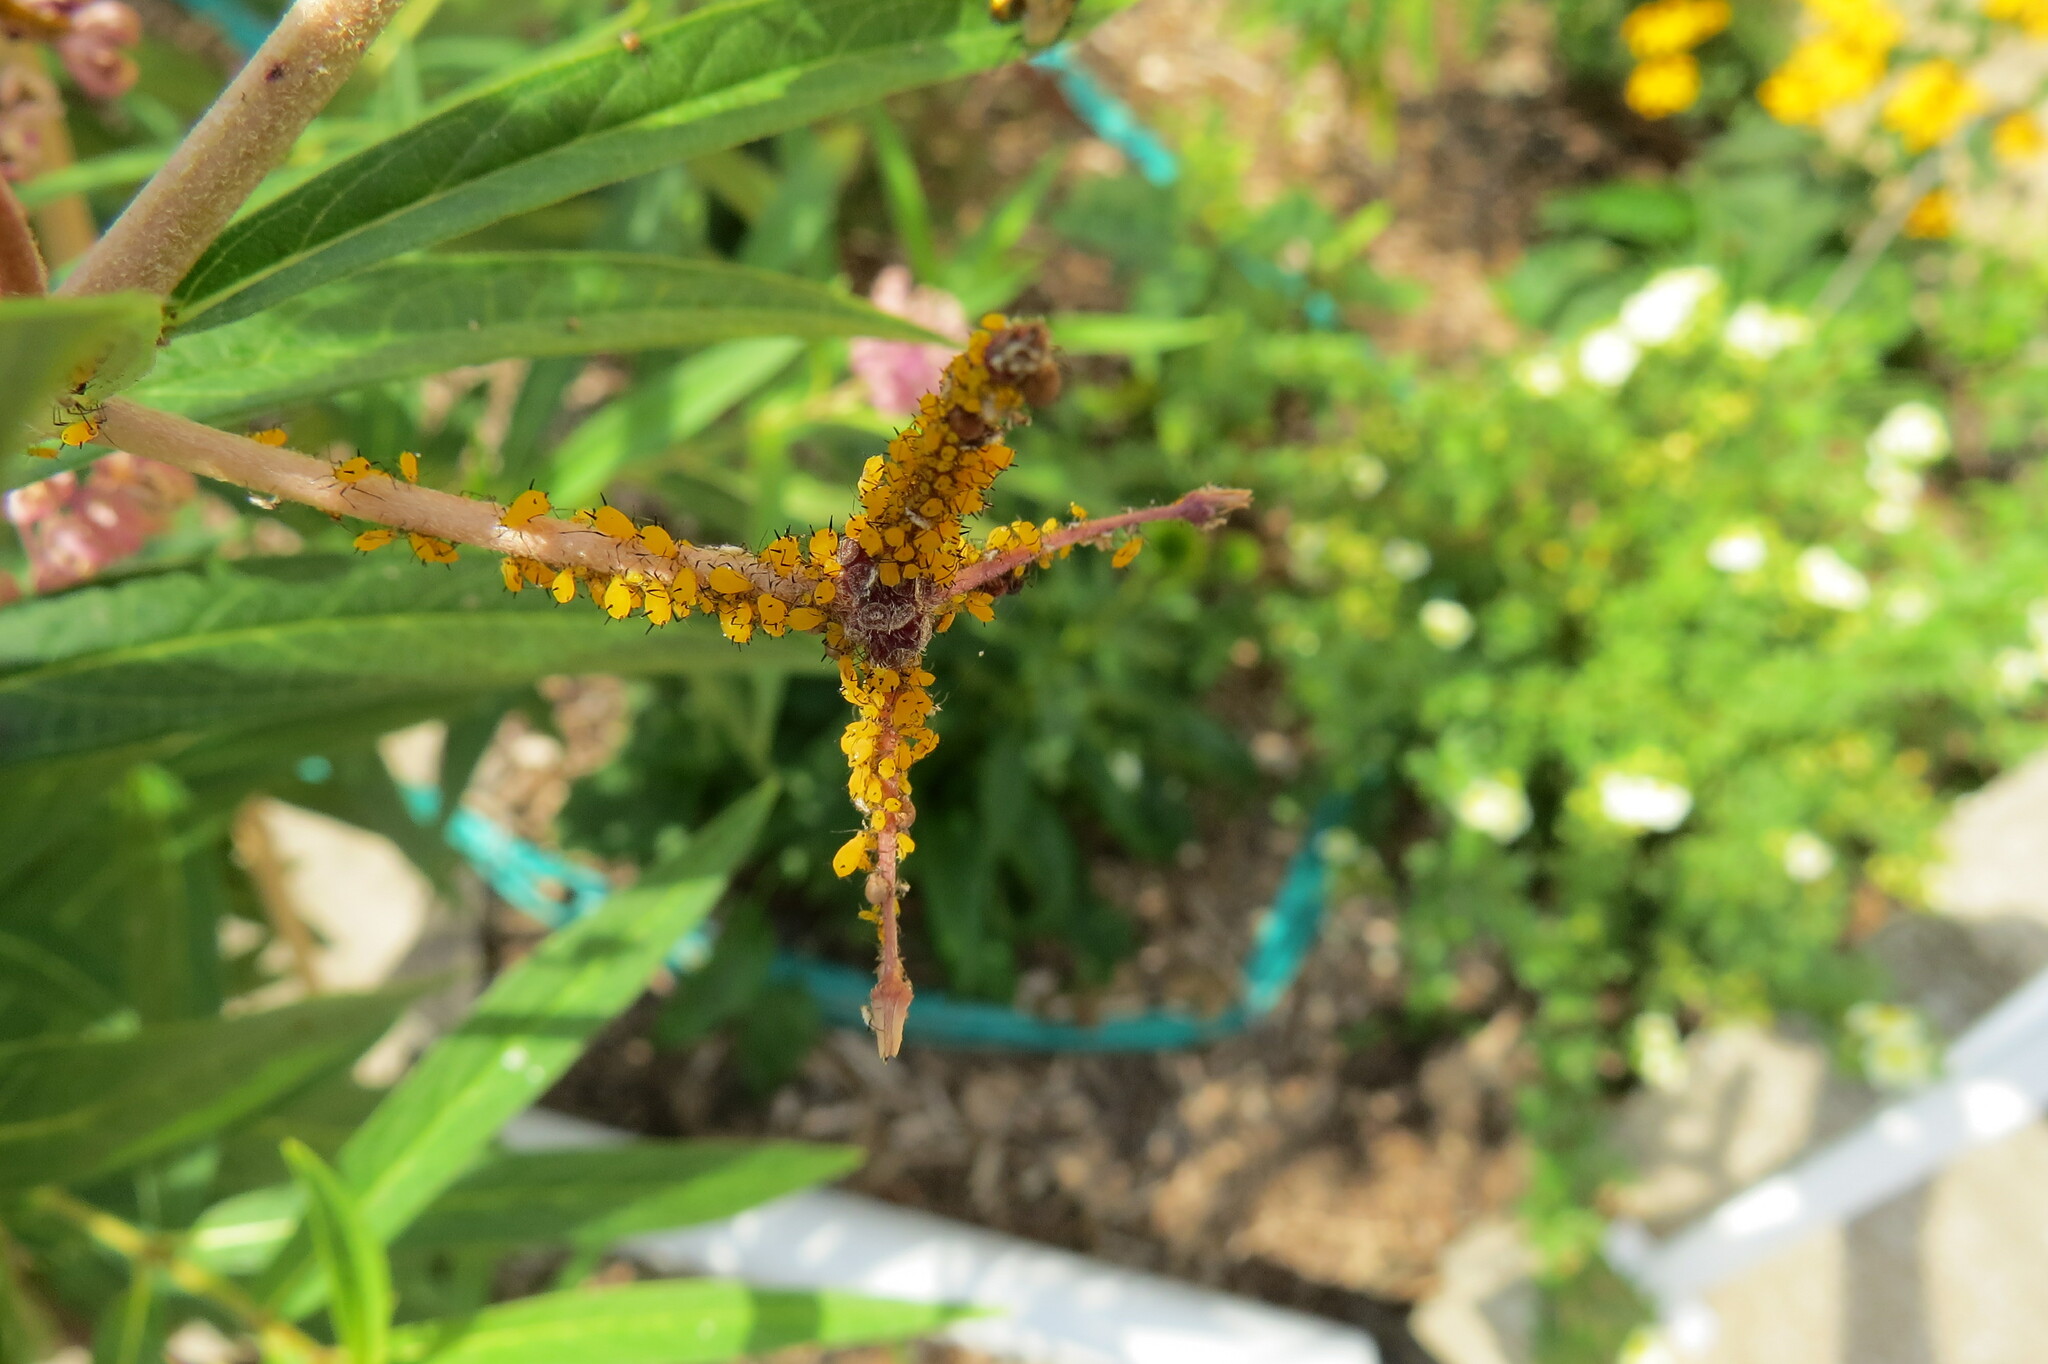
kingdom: Animalia
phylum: Arthropoda
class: Insecta
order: Hemiptera
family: Aphididae
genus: Aphis
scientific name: Aphis nerii
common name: Oleander aphid
